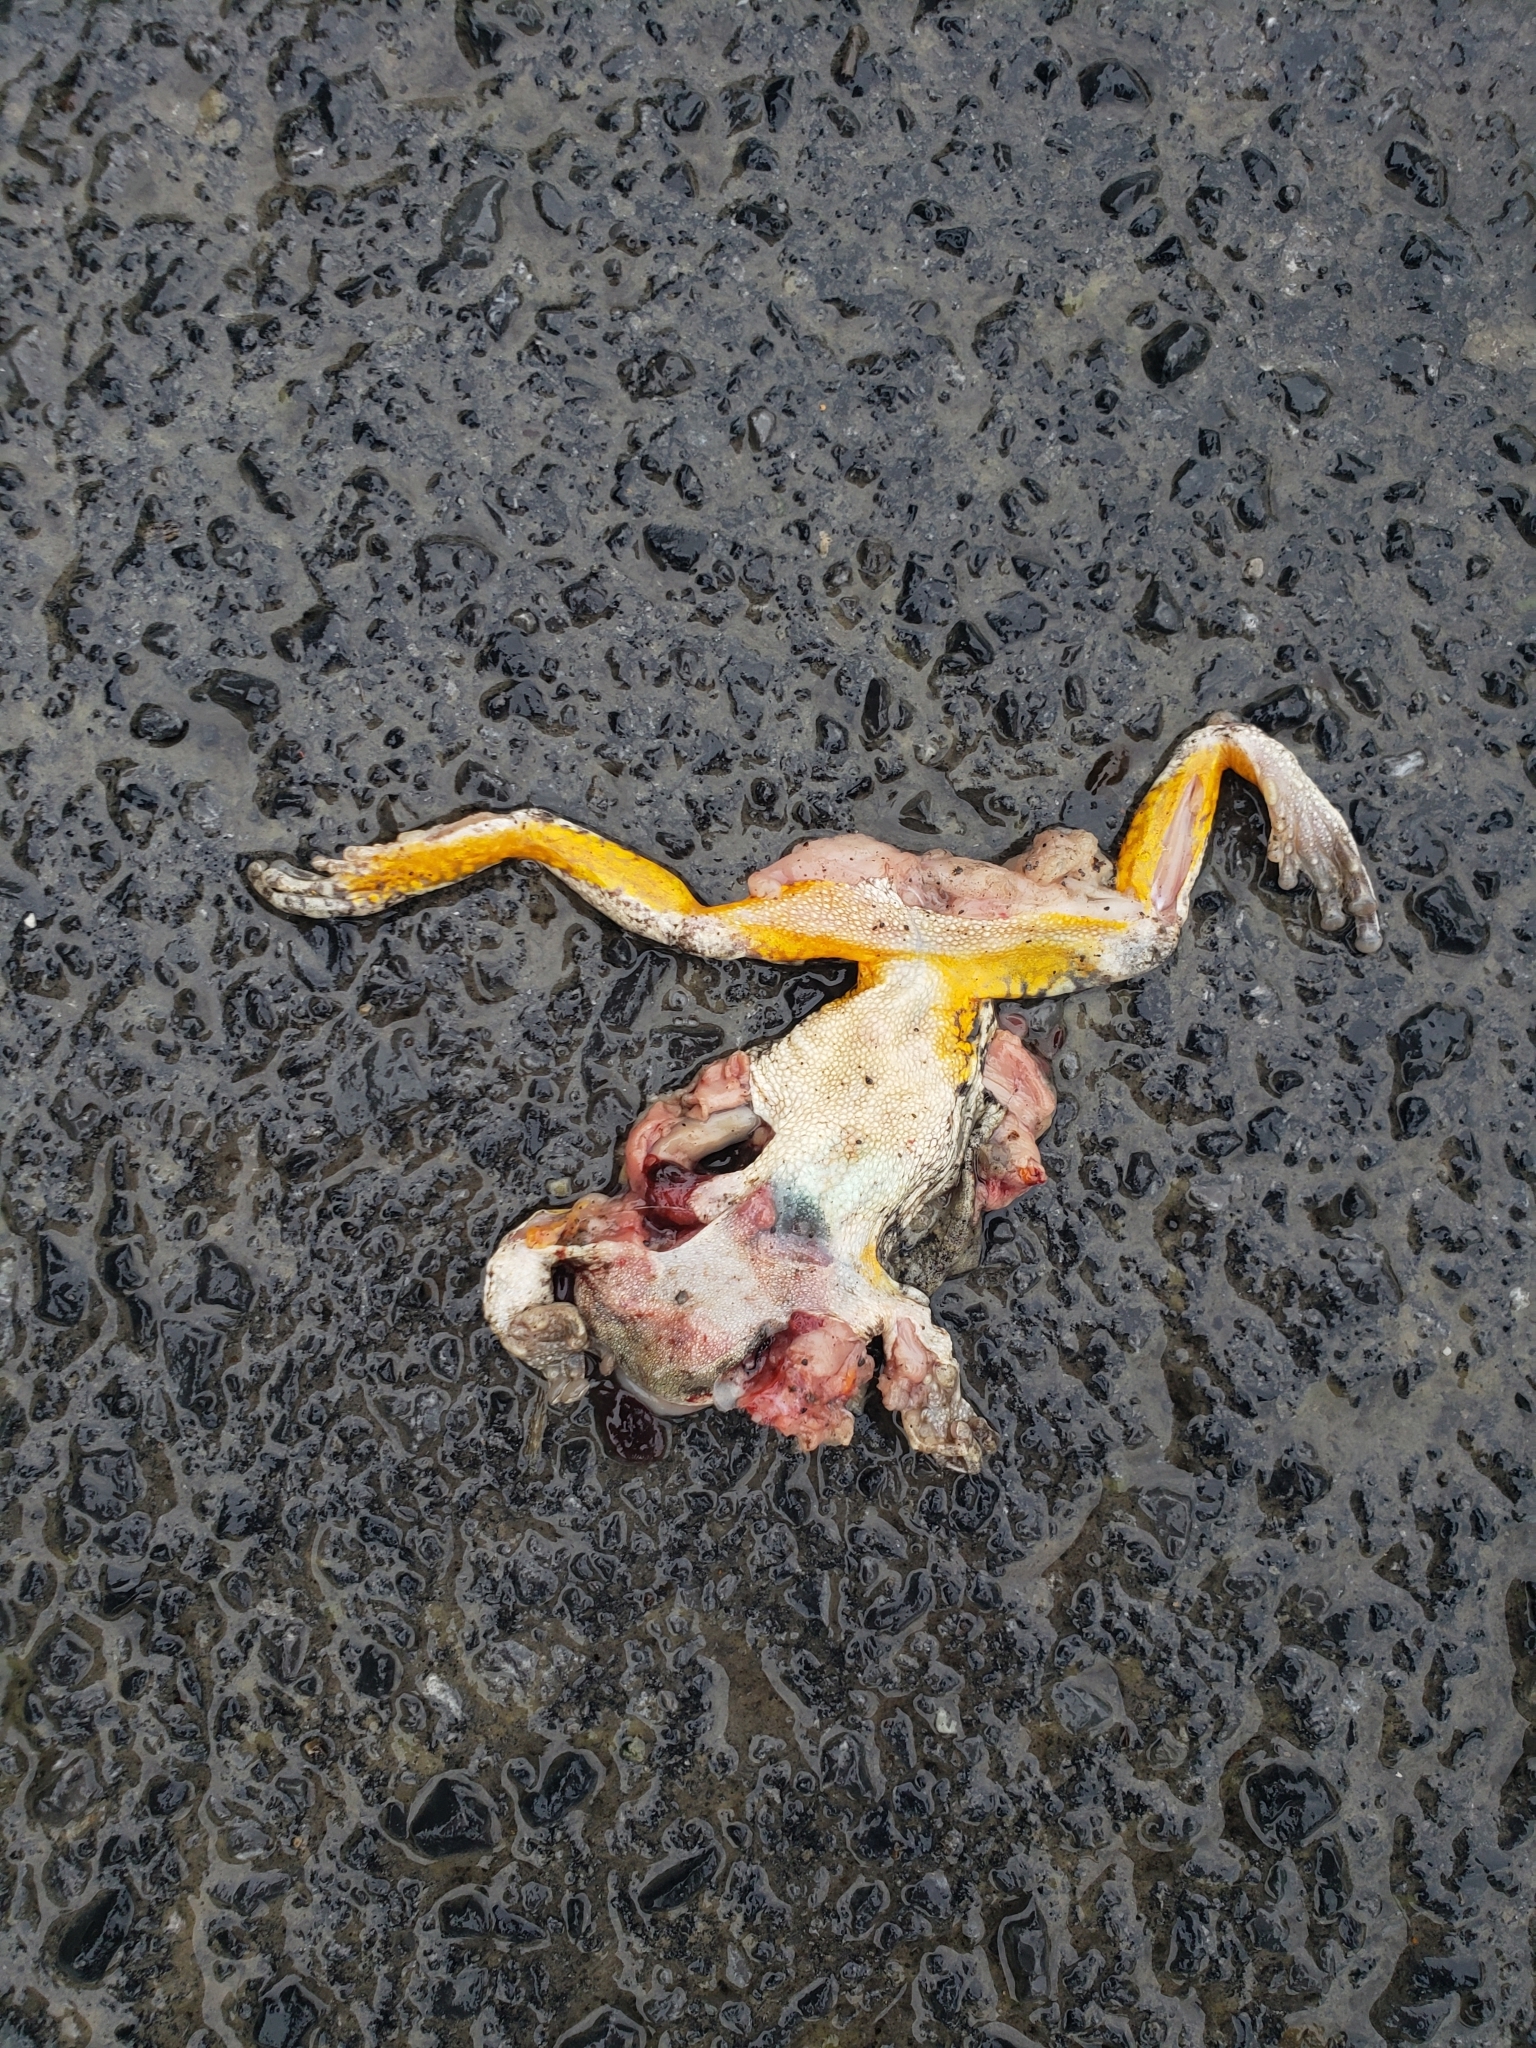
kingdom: Animalia
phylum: Chordata
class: Amphibia
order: Anura
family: Hylidae
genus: Dryophytes
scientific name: Dryophytes versicolor
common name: Gray treefrog
